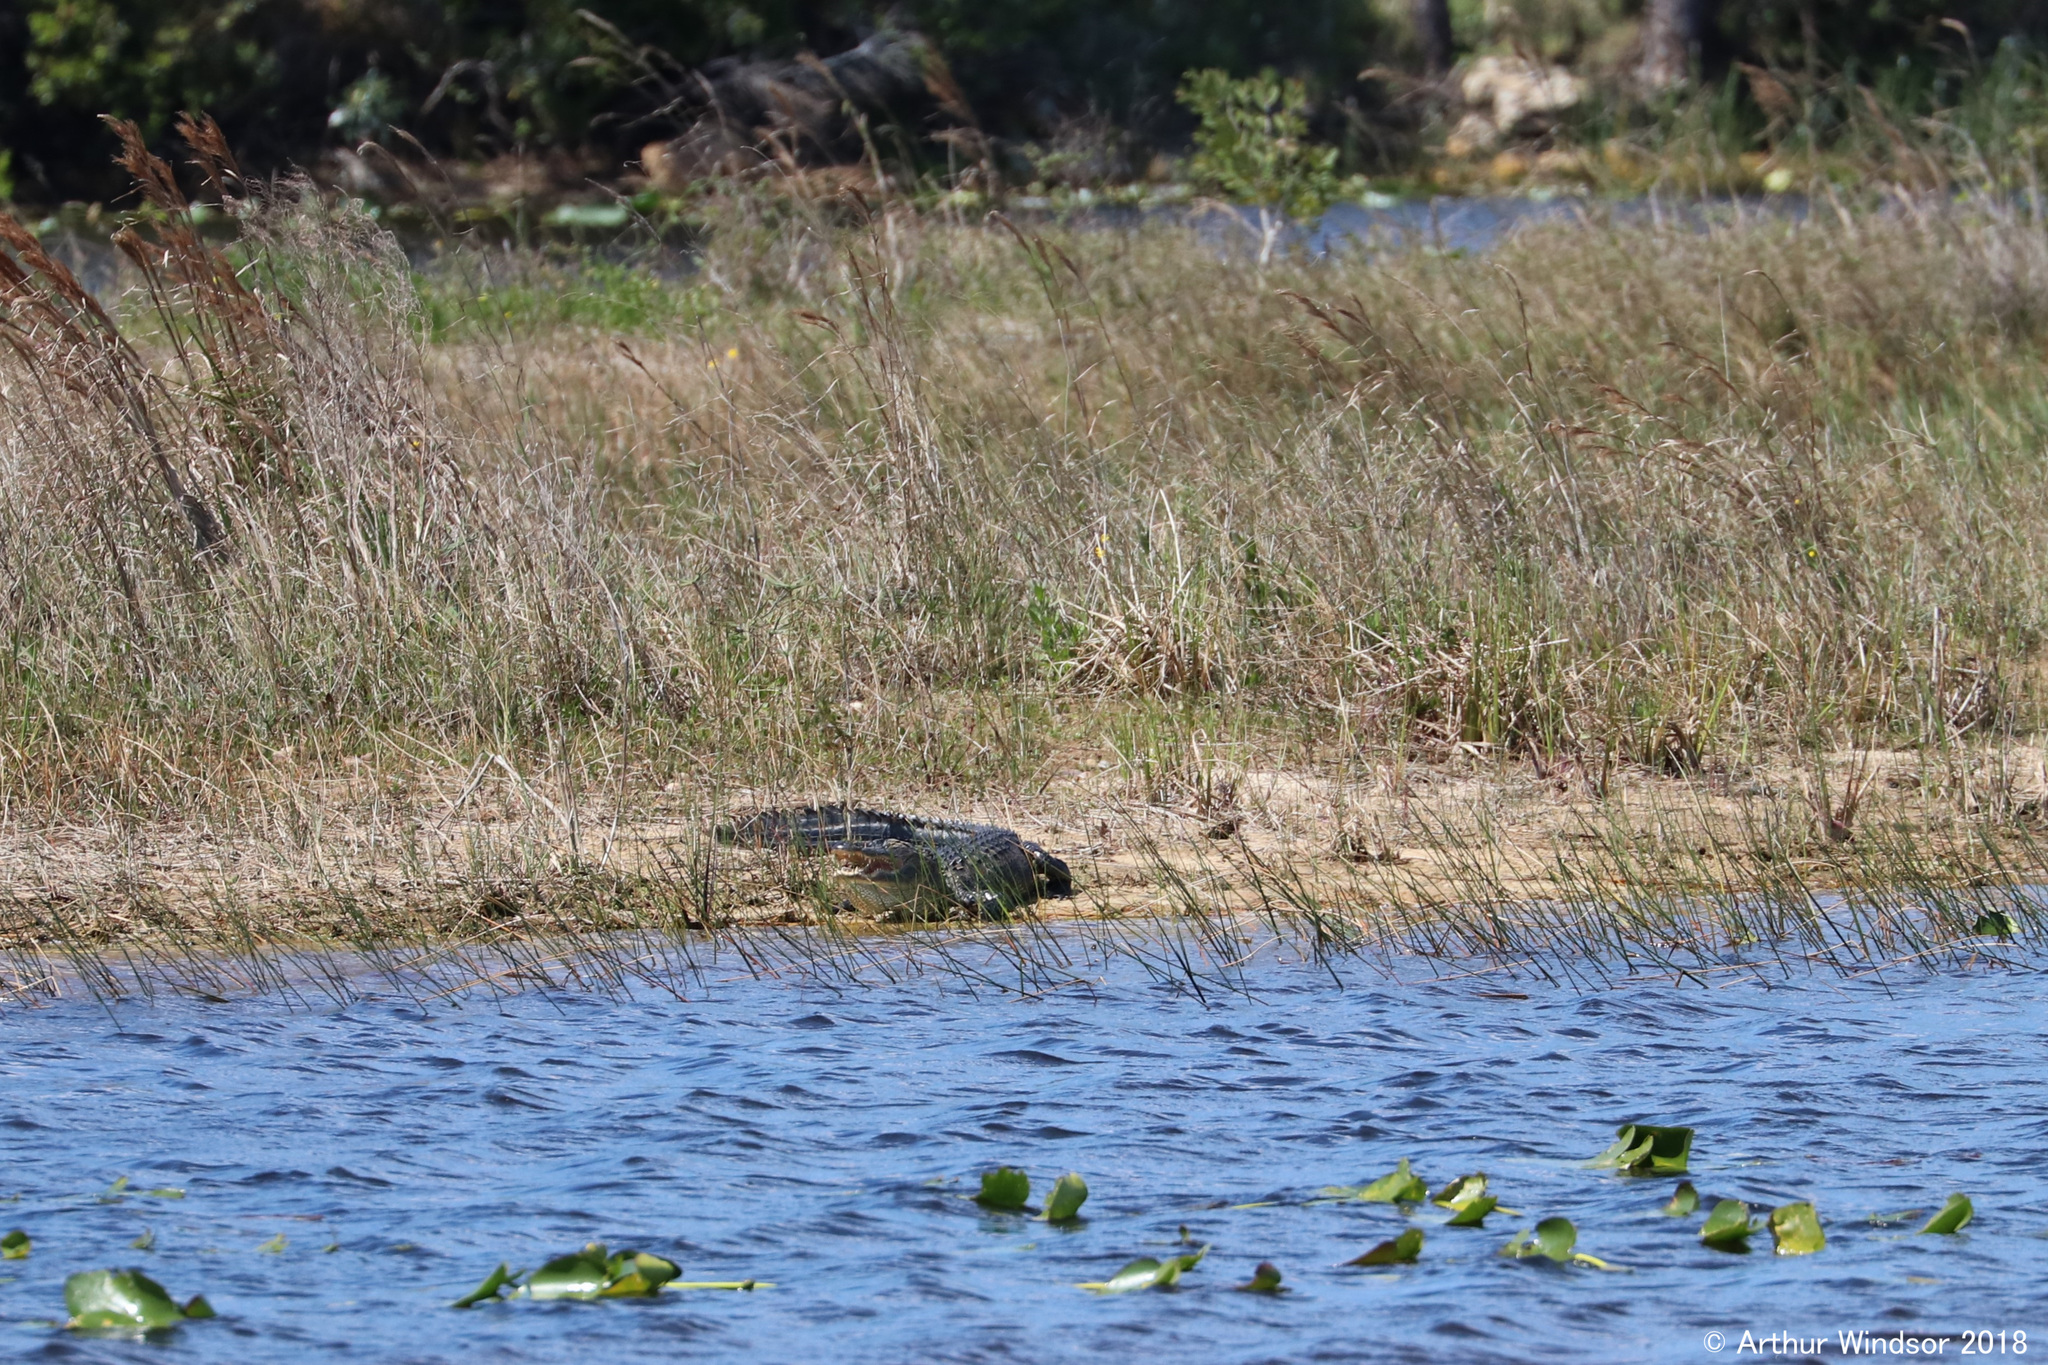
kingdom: Animalia
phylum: Chordata
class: Crocodylia
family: Alligatoridae
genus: Alligator
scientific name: Alligator mississippiensis
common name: American alligator
